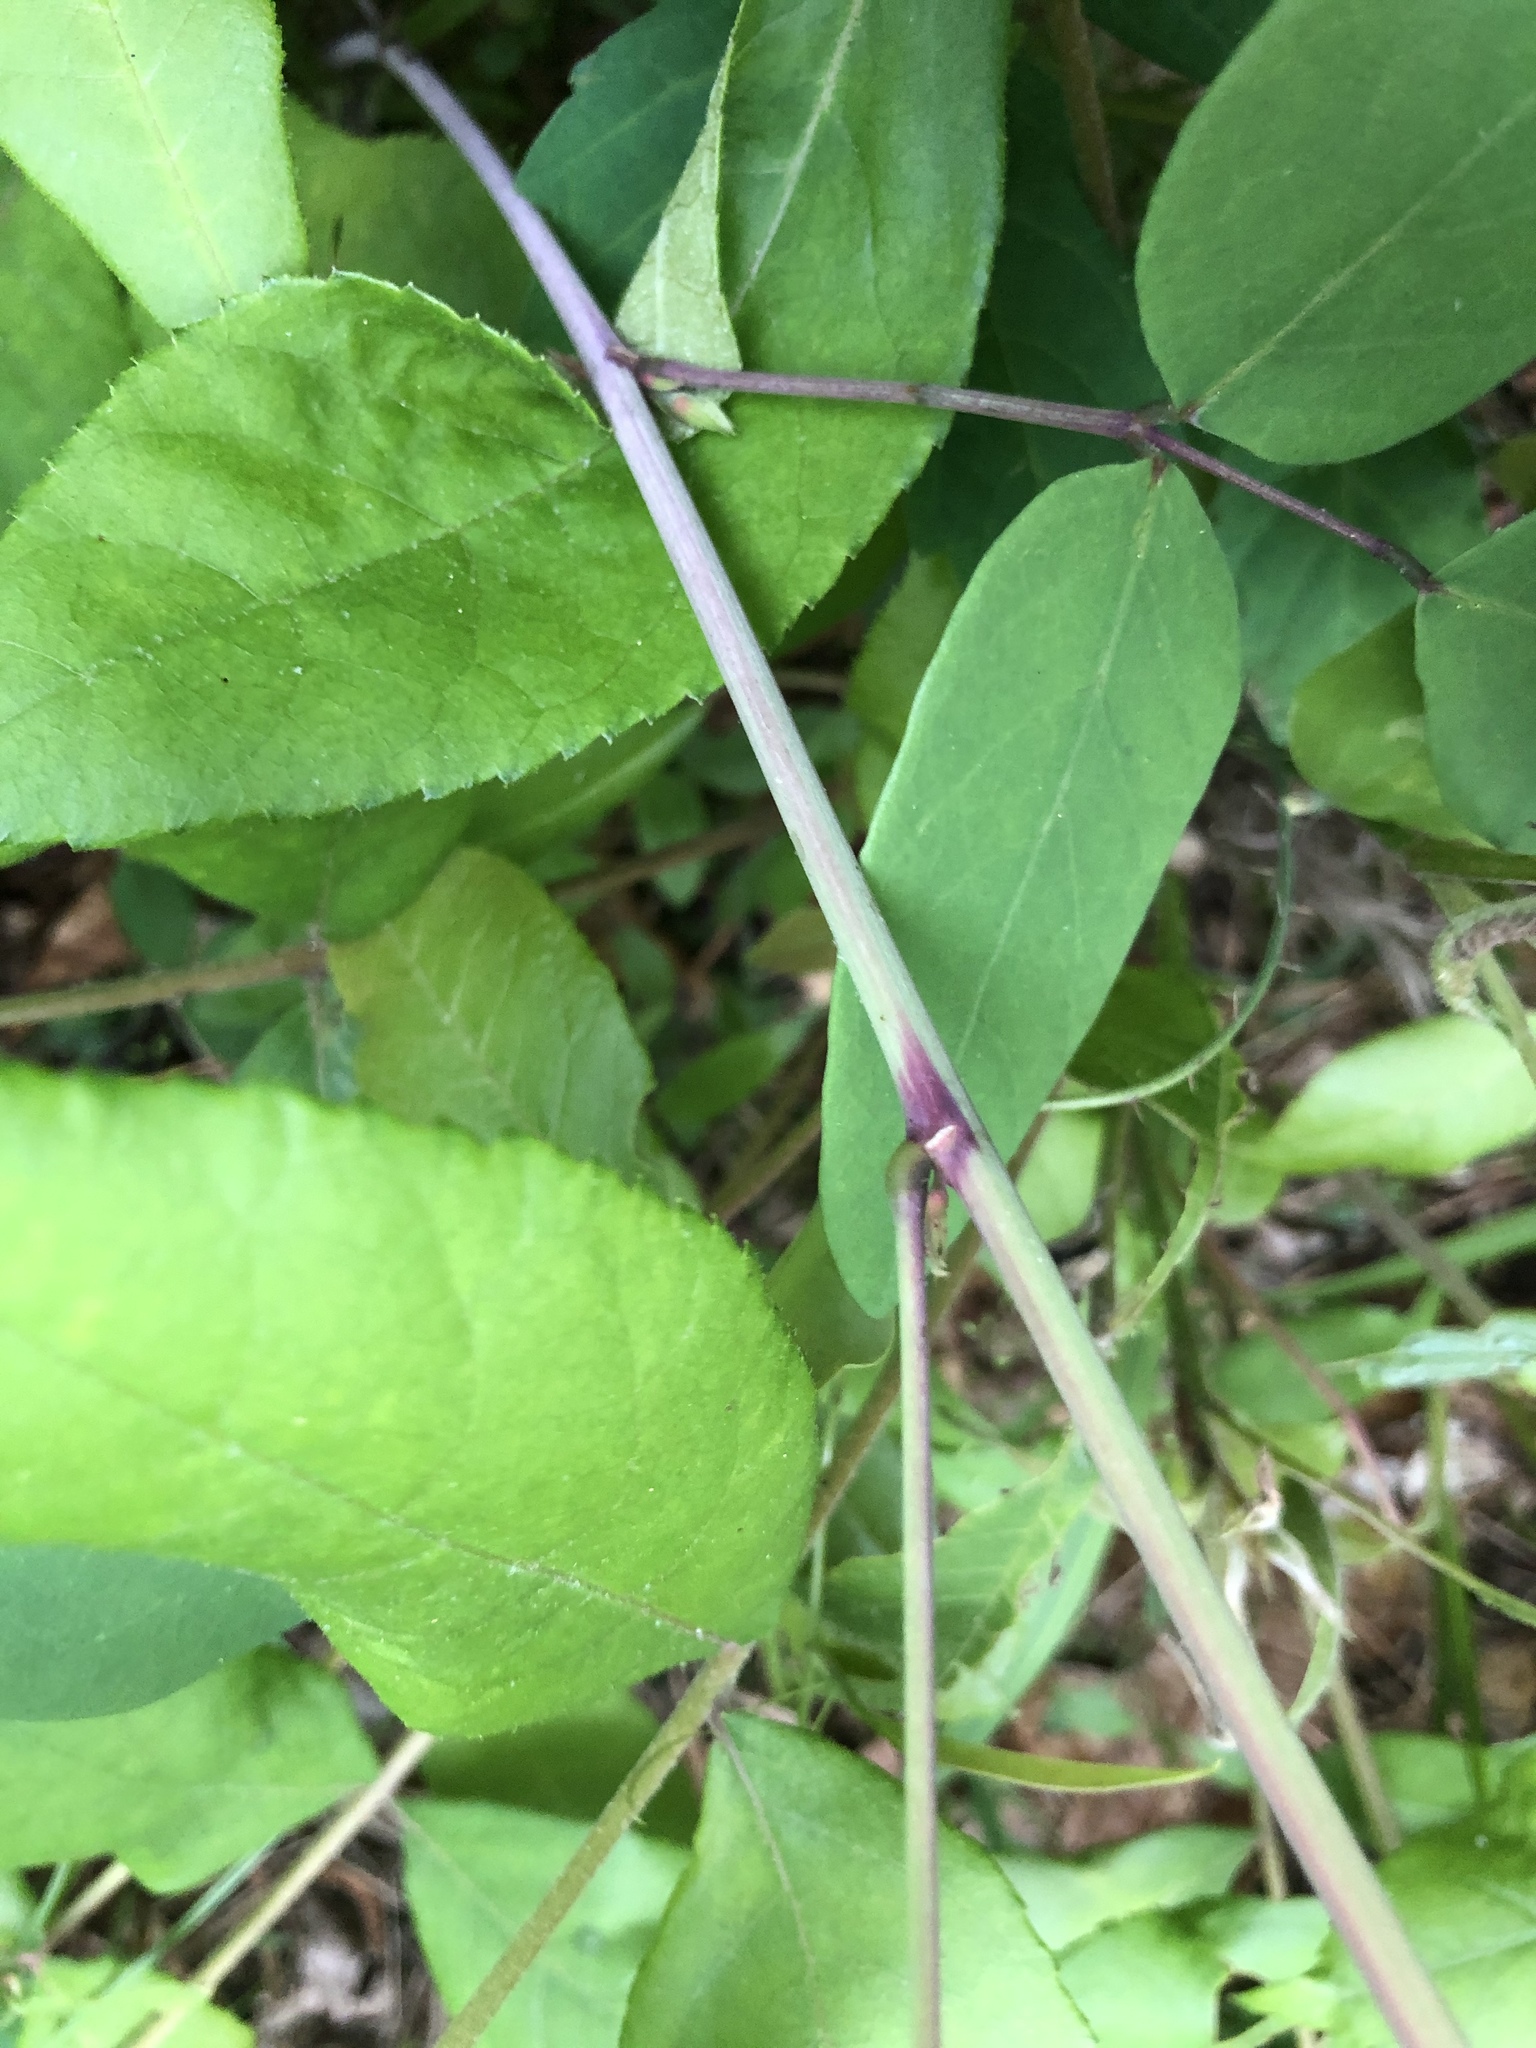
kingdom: Plantae
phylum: Tracheophyta
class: Magnoliopsida
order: Fabales
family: Fabaceae
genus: Desmodium
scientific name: Desmodium laevigatum
